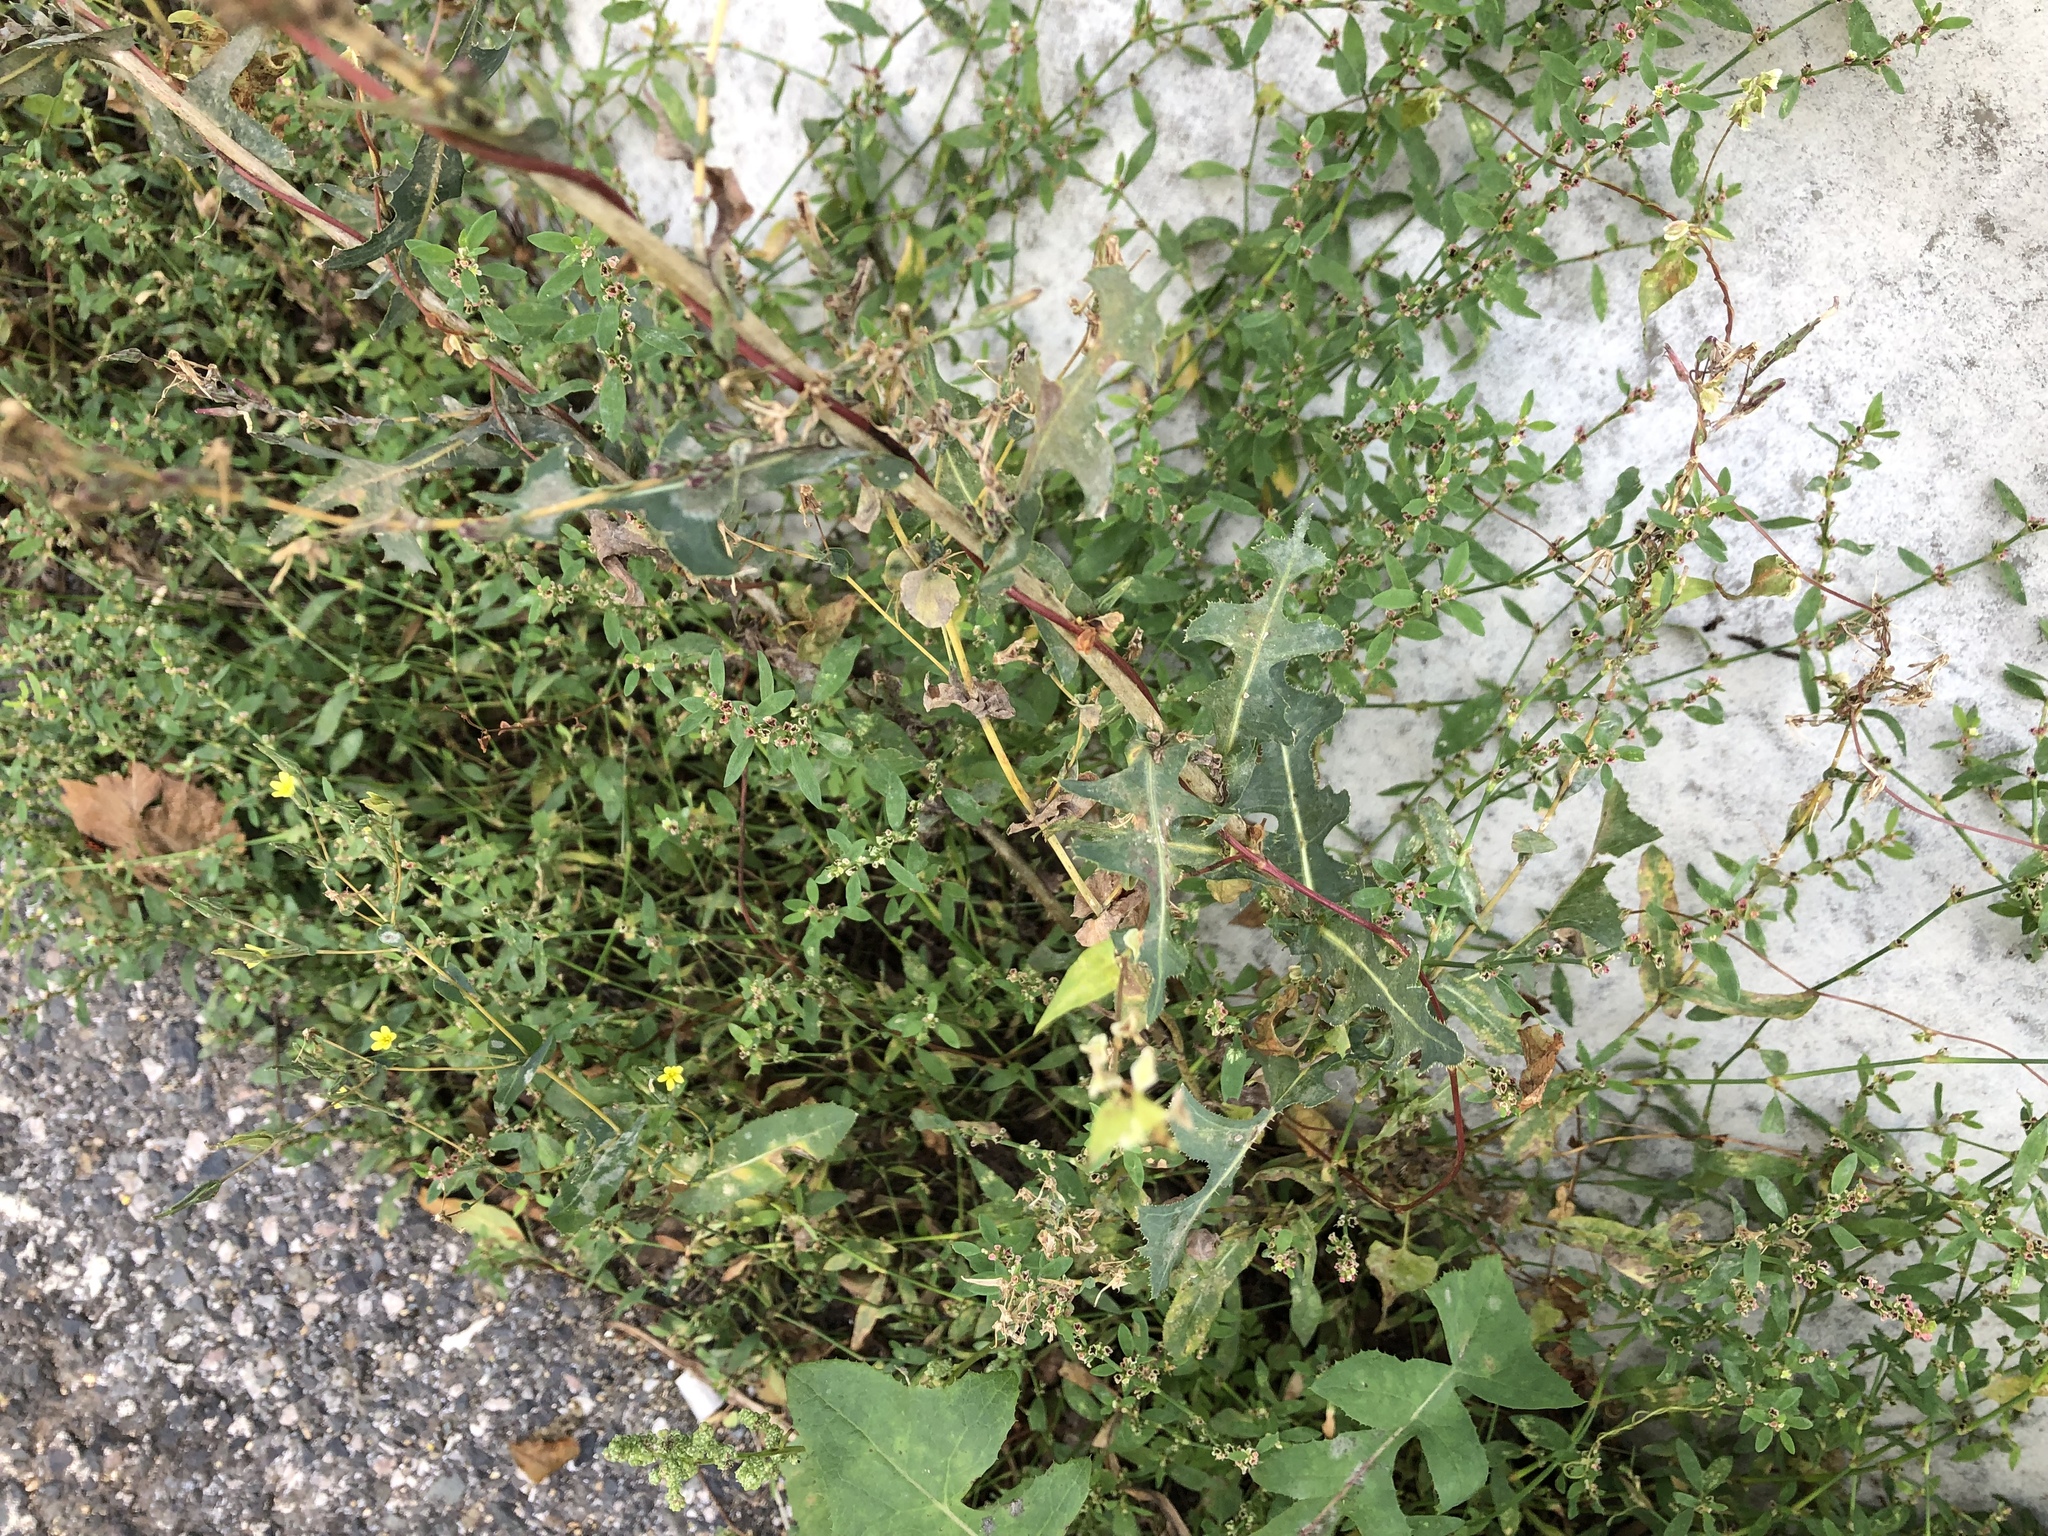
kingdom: Plantae
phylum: Tracheophyta
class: Magnoliopsida
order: Asterales
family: Asteraceae
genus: Lactuca
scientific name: Lactuca serriola
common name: Prickly lettuce
